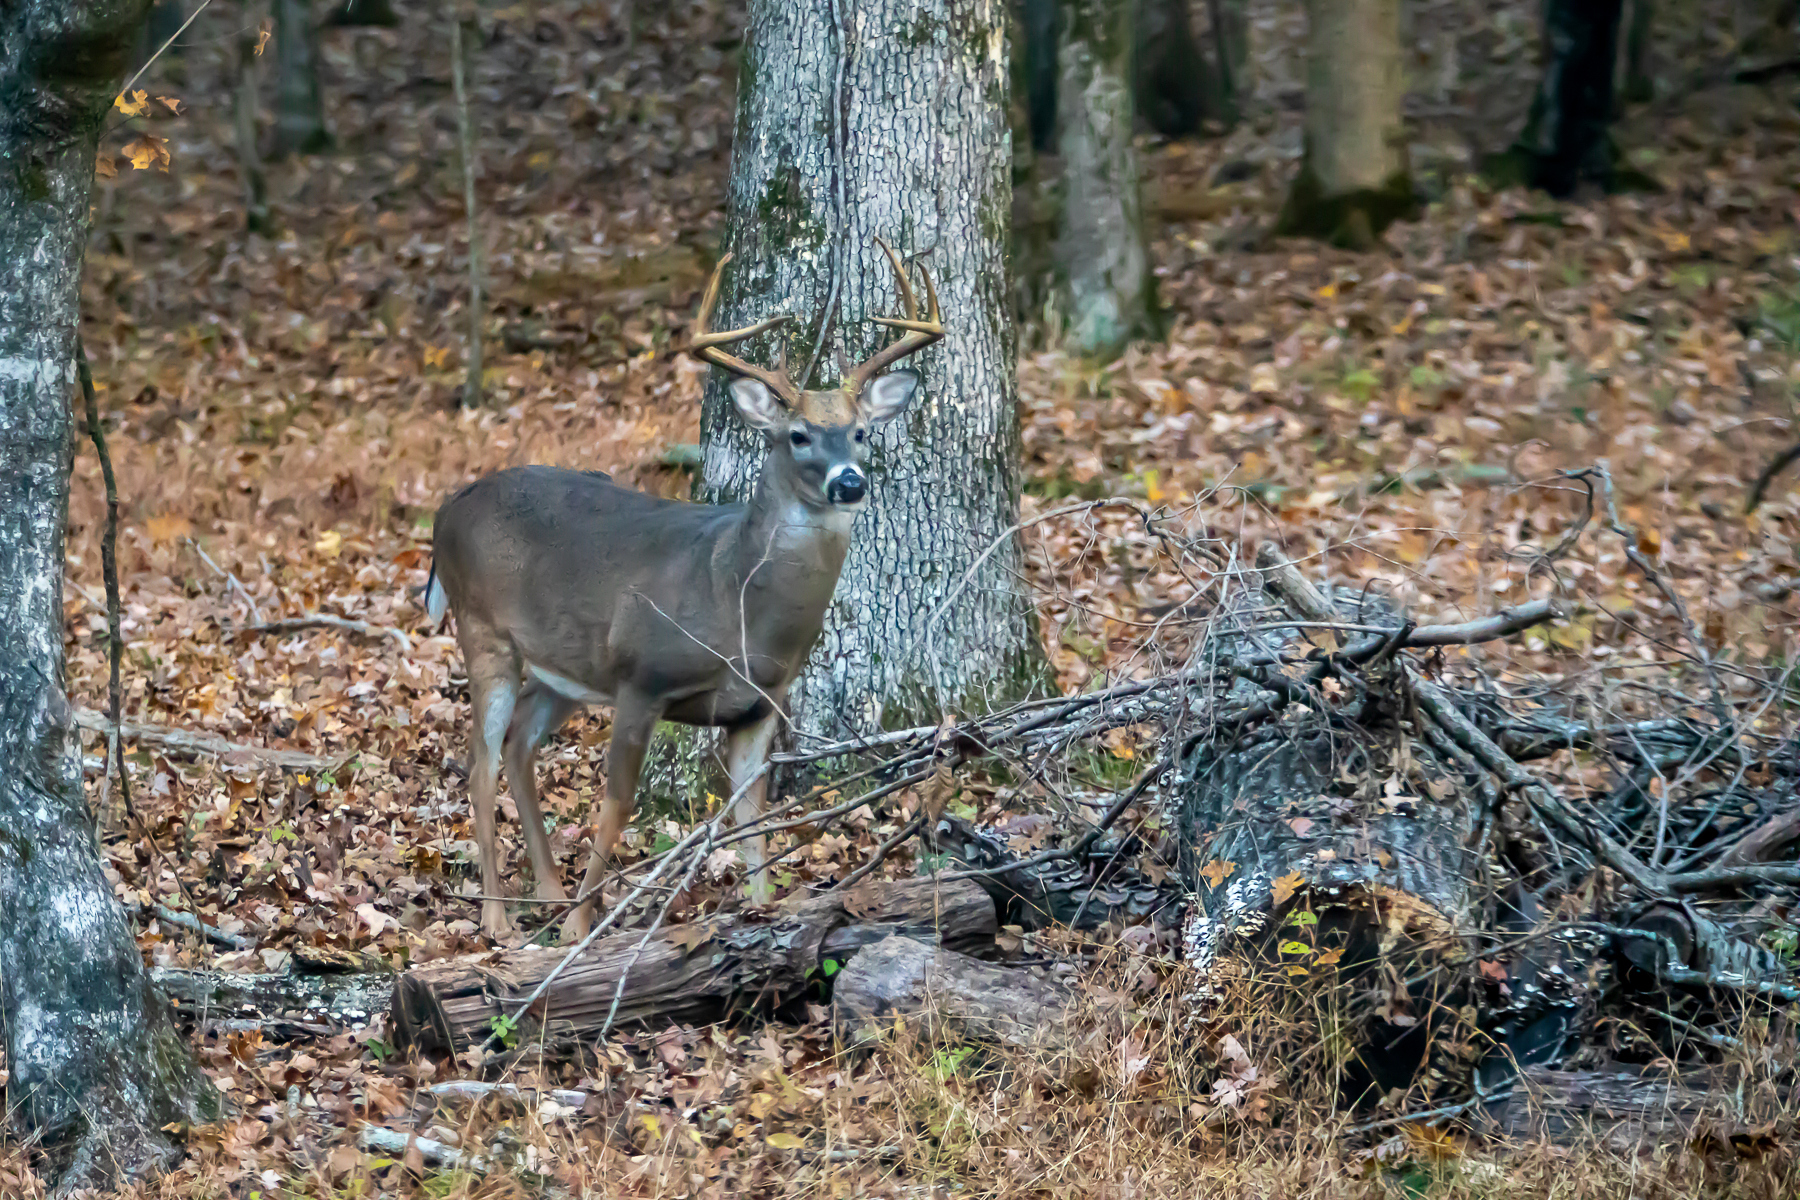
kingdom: Animalia
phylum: Chordata
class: Mammalia
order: Artiodactyla
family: Cervidae
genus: Odocoileus
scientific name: Odocoileus virginianus
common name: White-tailed deer
